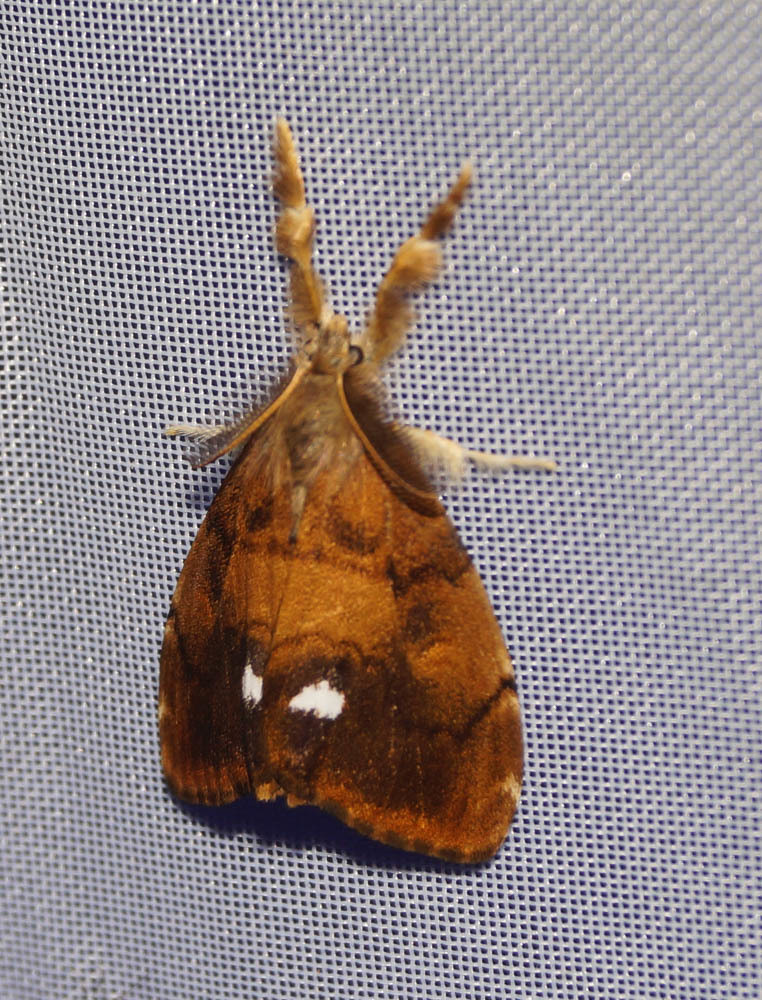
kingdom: Animalia
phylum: Arthropoda
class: Insecta
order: Lepidoptera
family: Erebidae
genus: Orgyia
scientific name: Orgyia antiqua
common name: Vapourer
